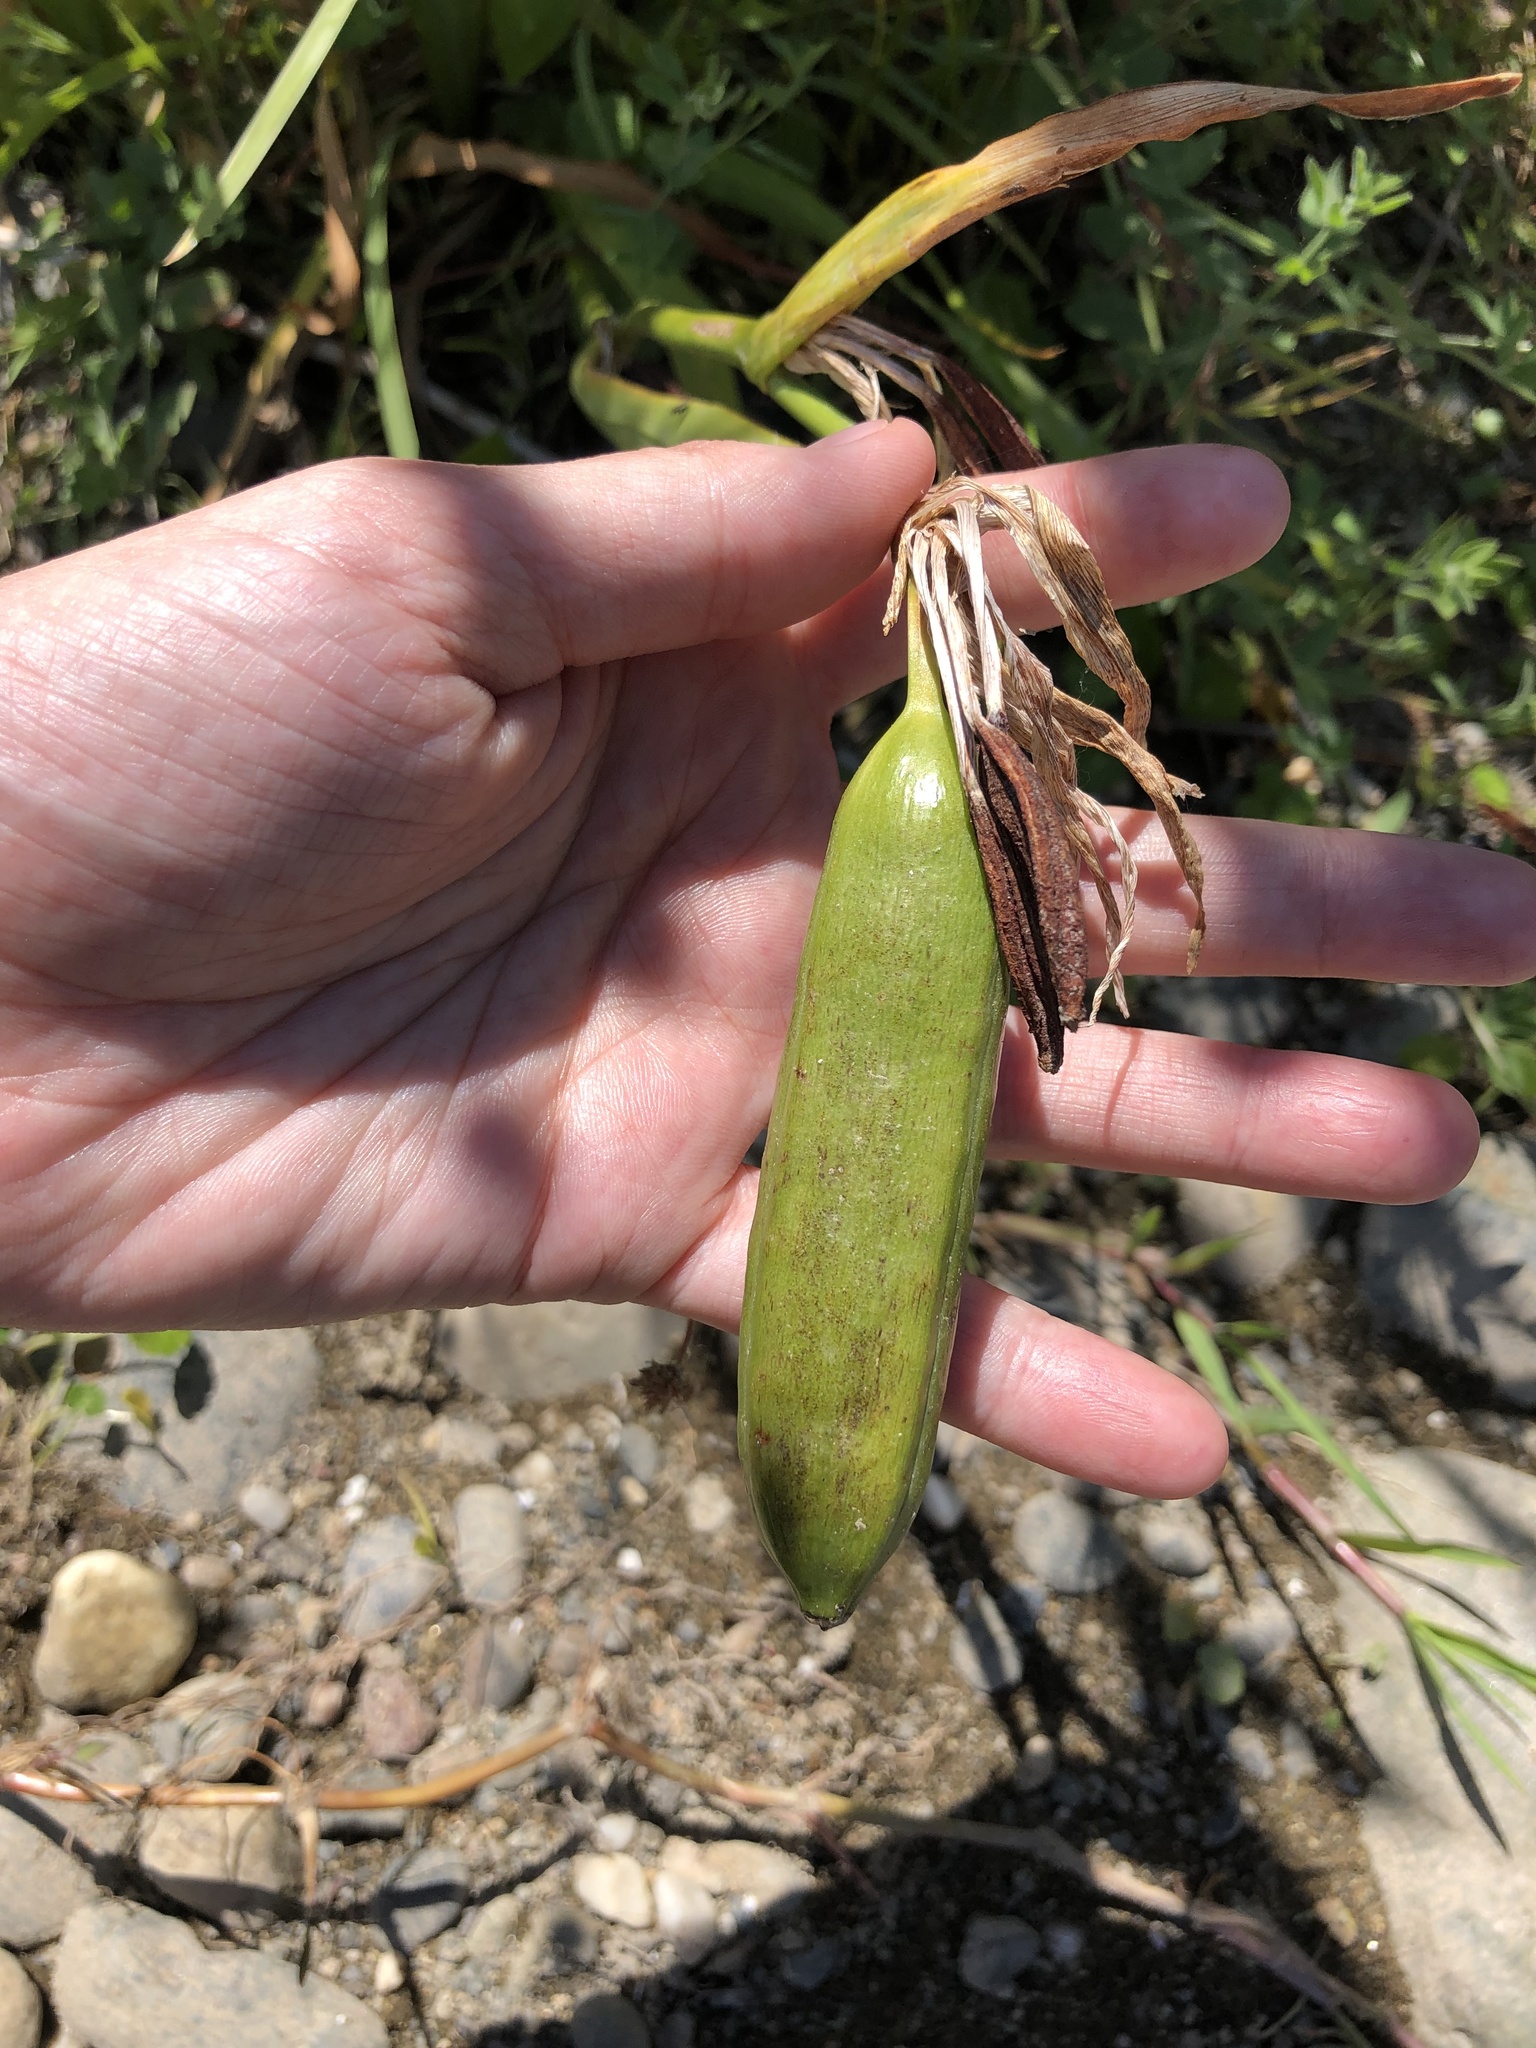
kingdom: Plantae
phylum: Tracheophyta
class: Liliopsida
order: Asparagales
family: Iridaceae
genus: Iris
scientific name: Iris pseudacorus
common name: Yellow flag
